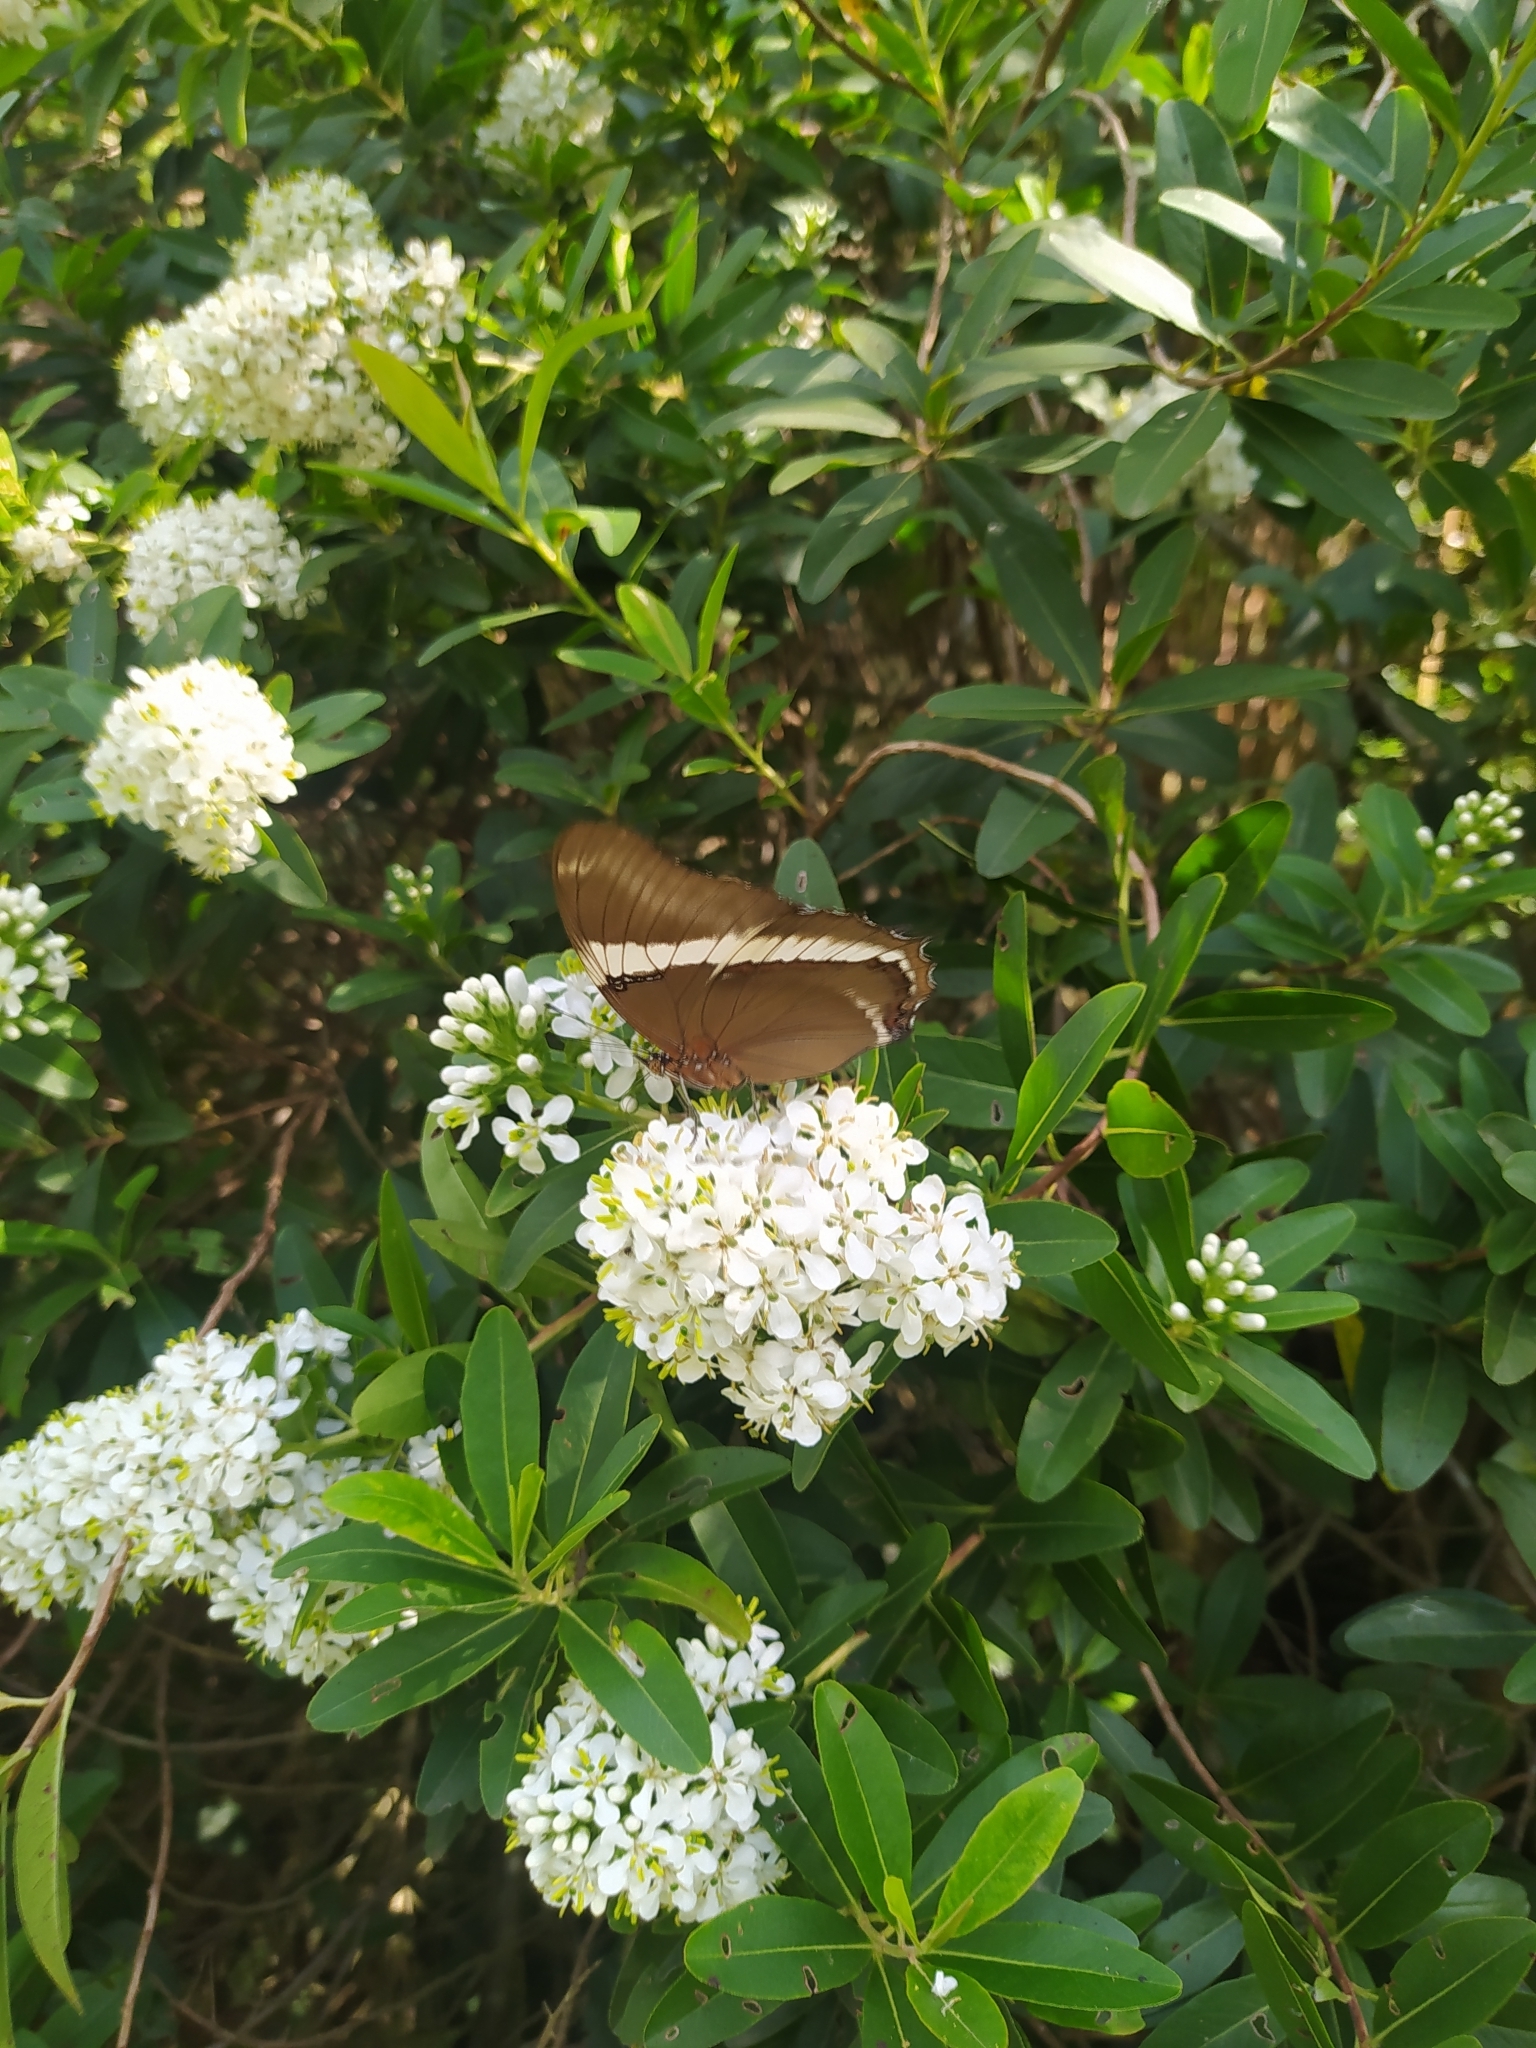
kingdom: Animalia
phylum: Arthropoda
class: Insecta
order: Lepidoptera
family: Nymphalidae
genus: Siproeta
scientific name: Siproeta epaphus
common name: Rusty-tipped page
